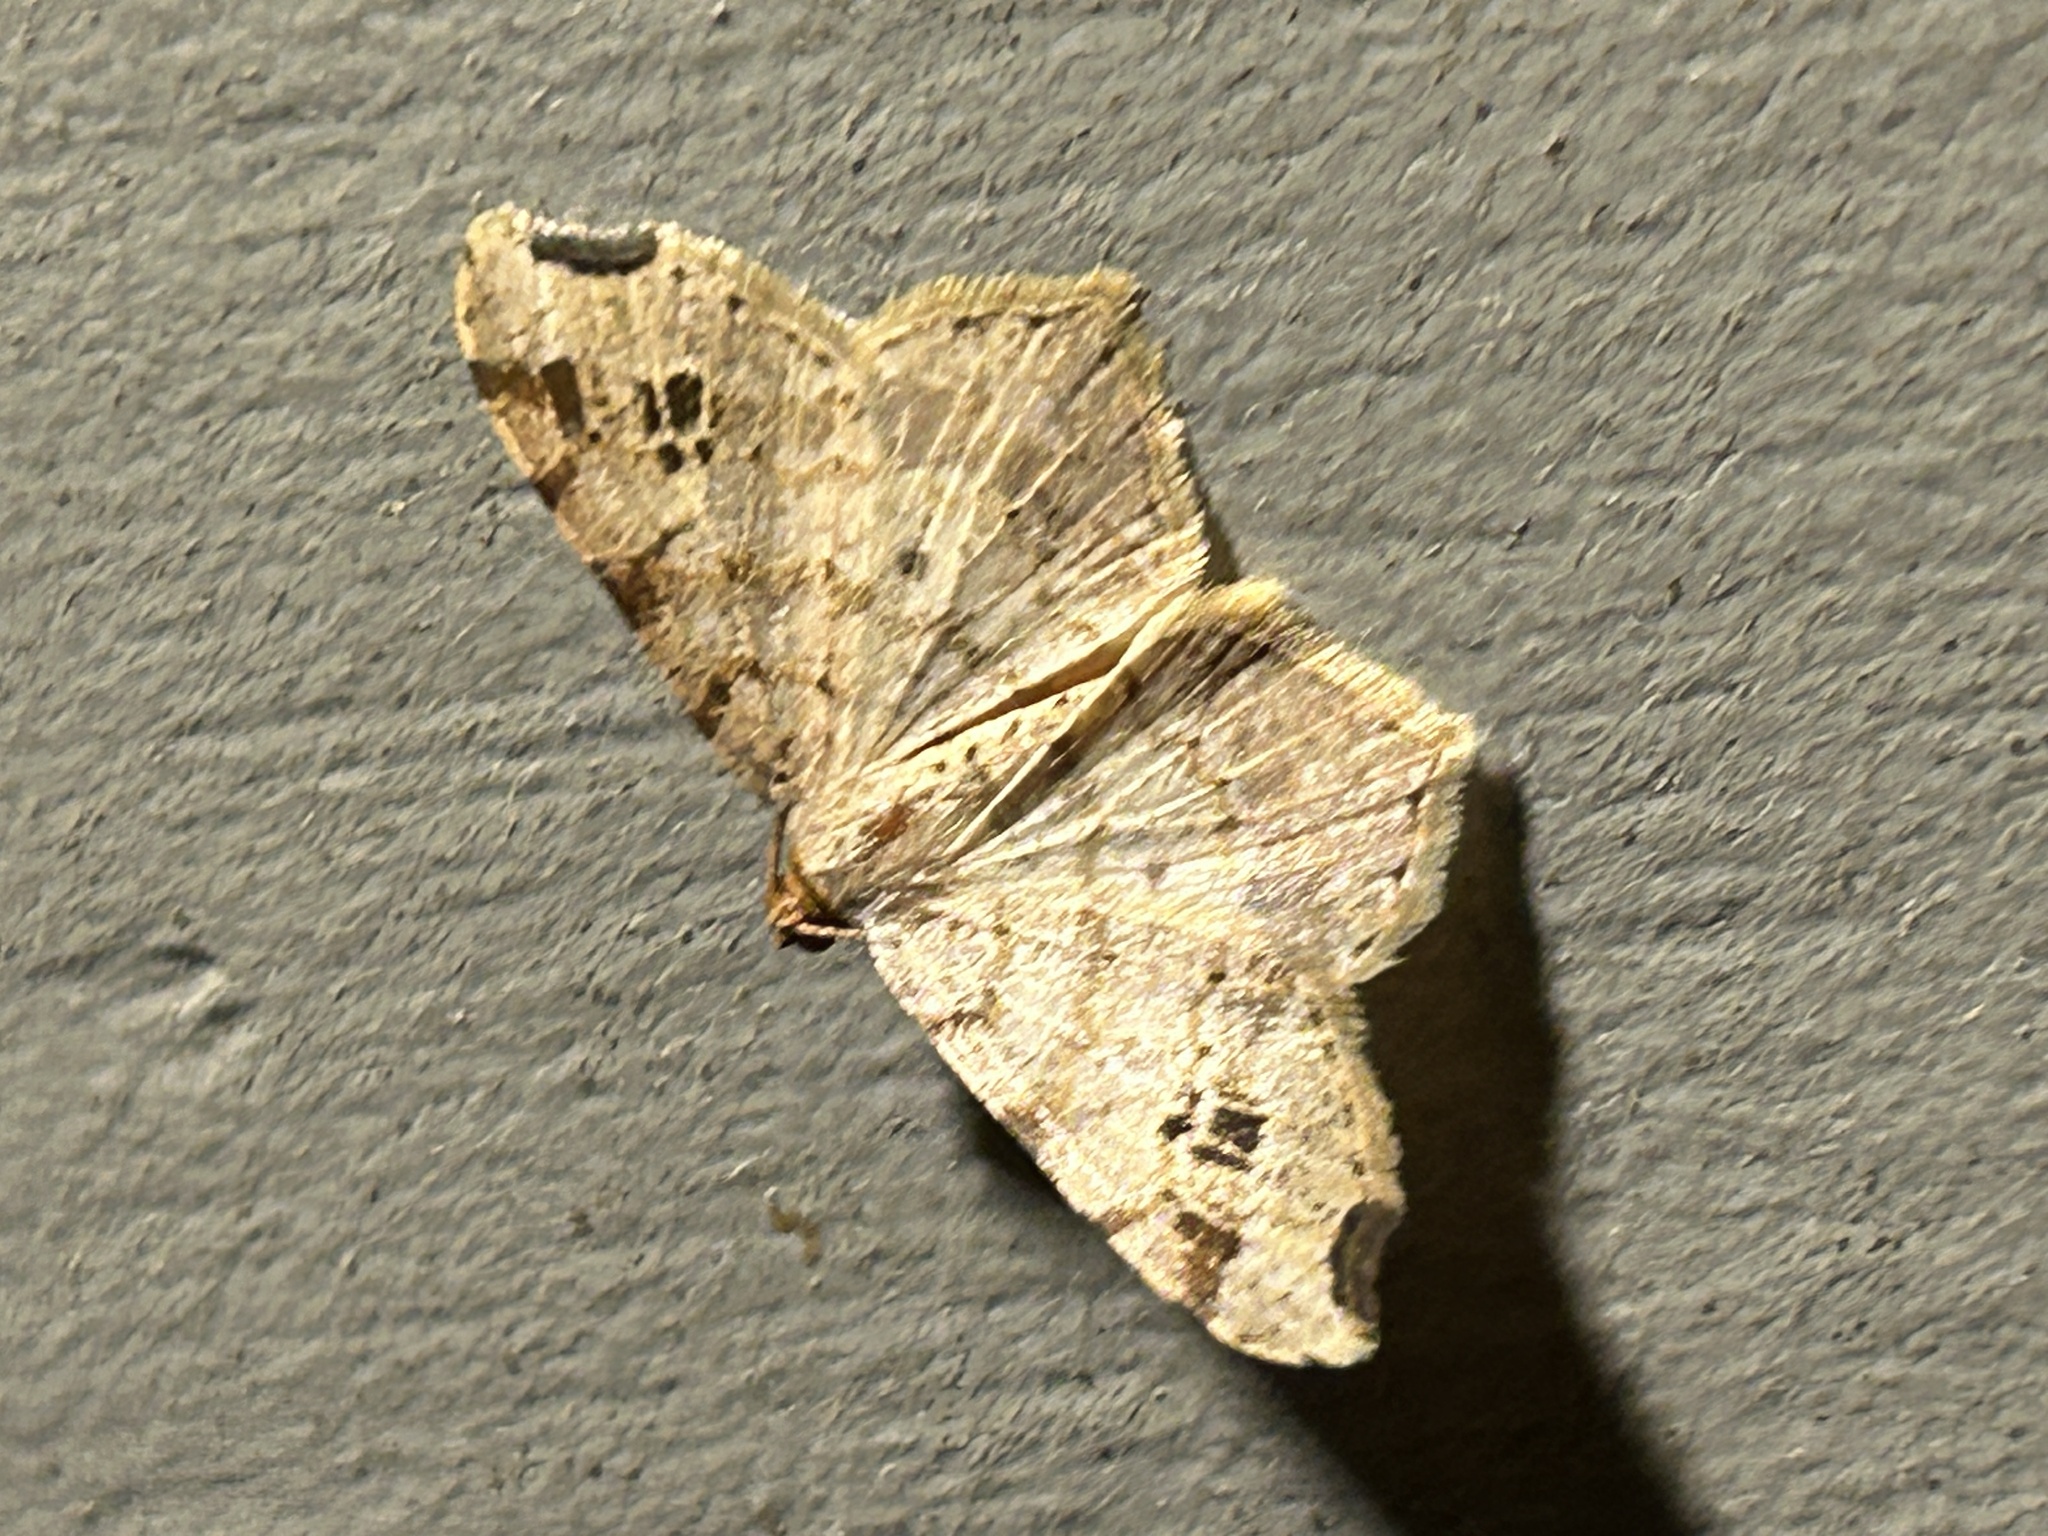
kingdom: Animalia
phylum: Arthropoda
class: Insecta
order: Lepidoptera
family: Geometridae
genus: Macaria
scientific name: Macaria aemulataria
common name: Common angle
